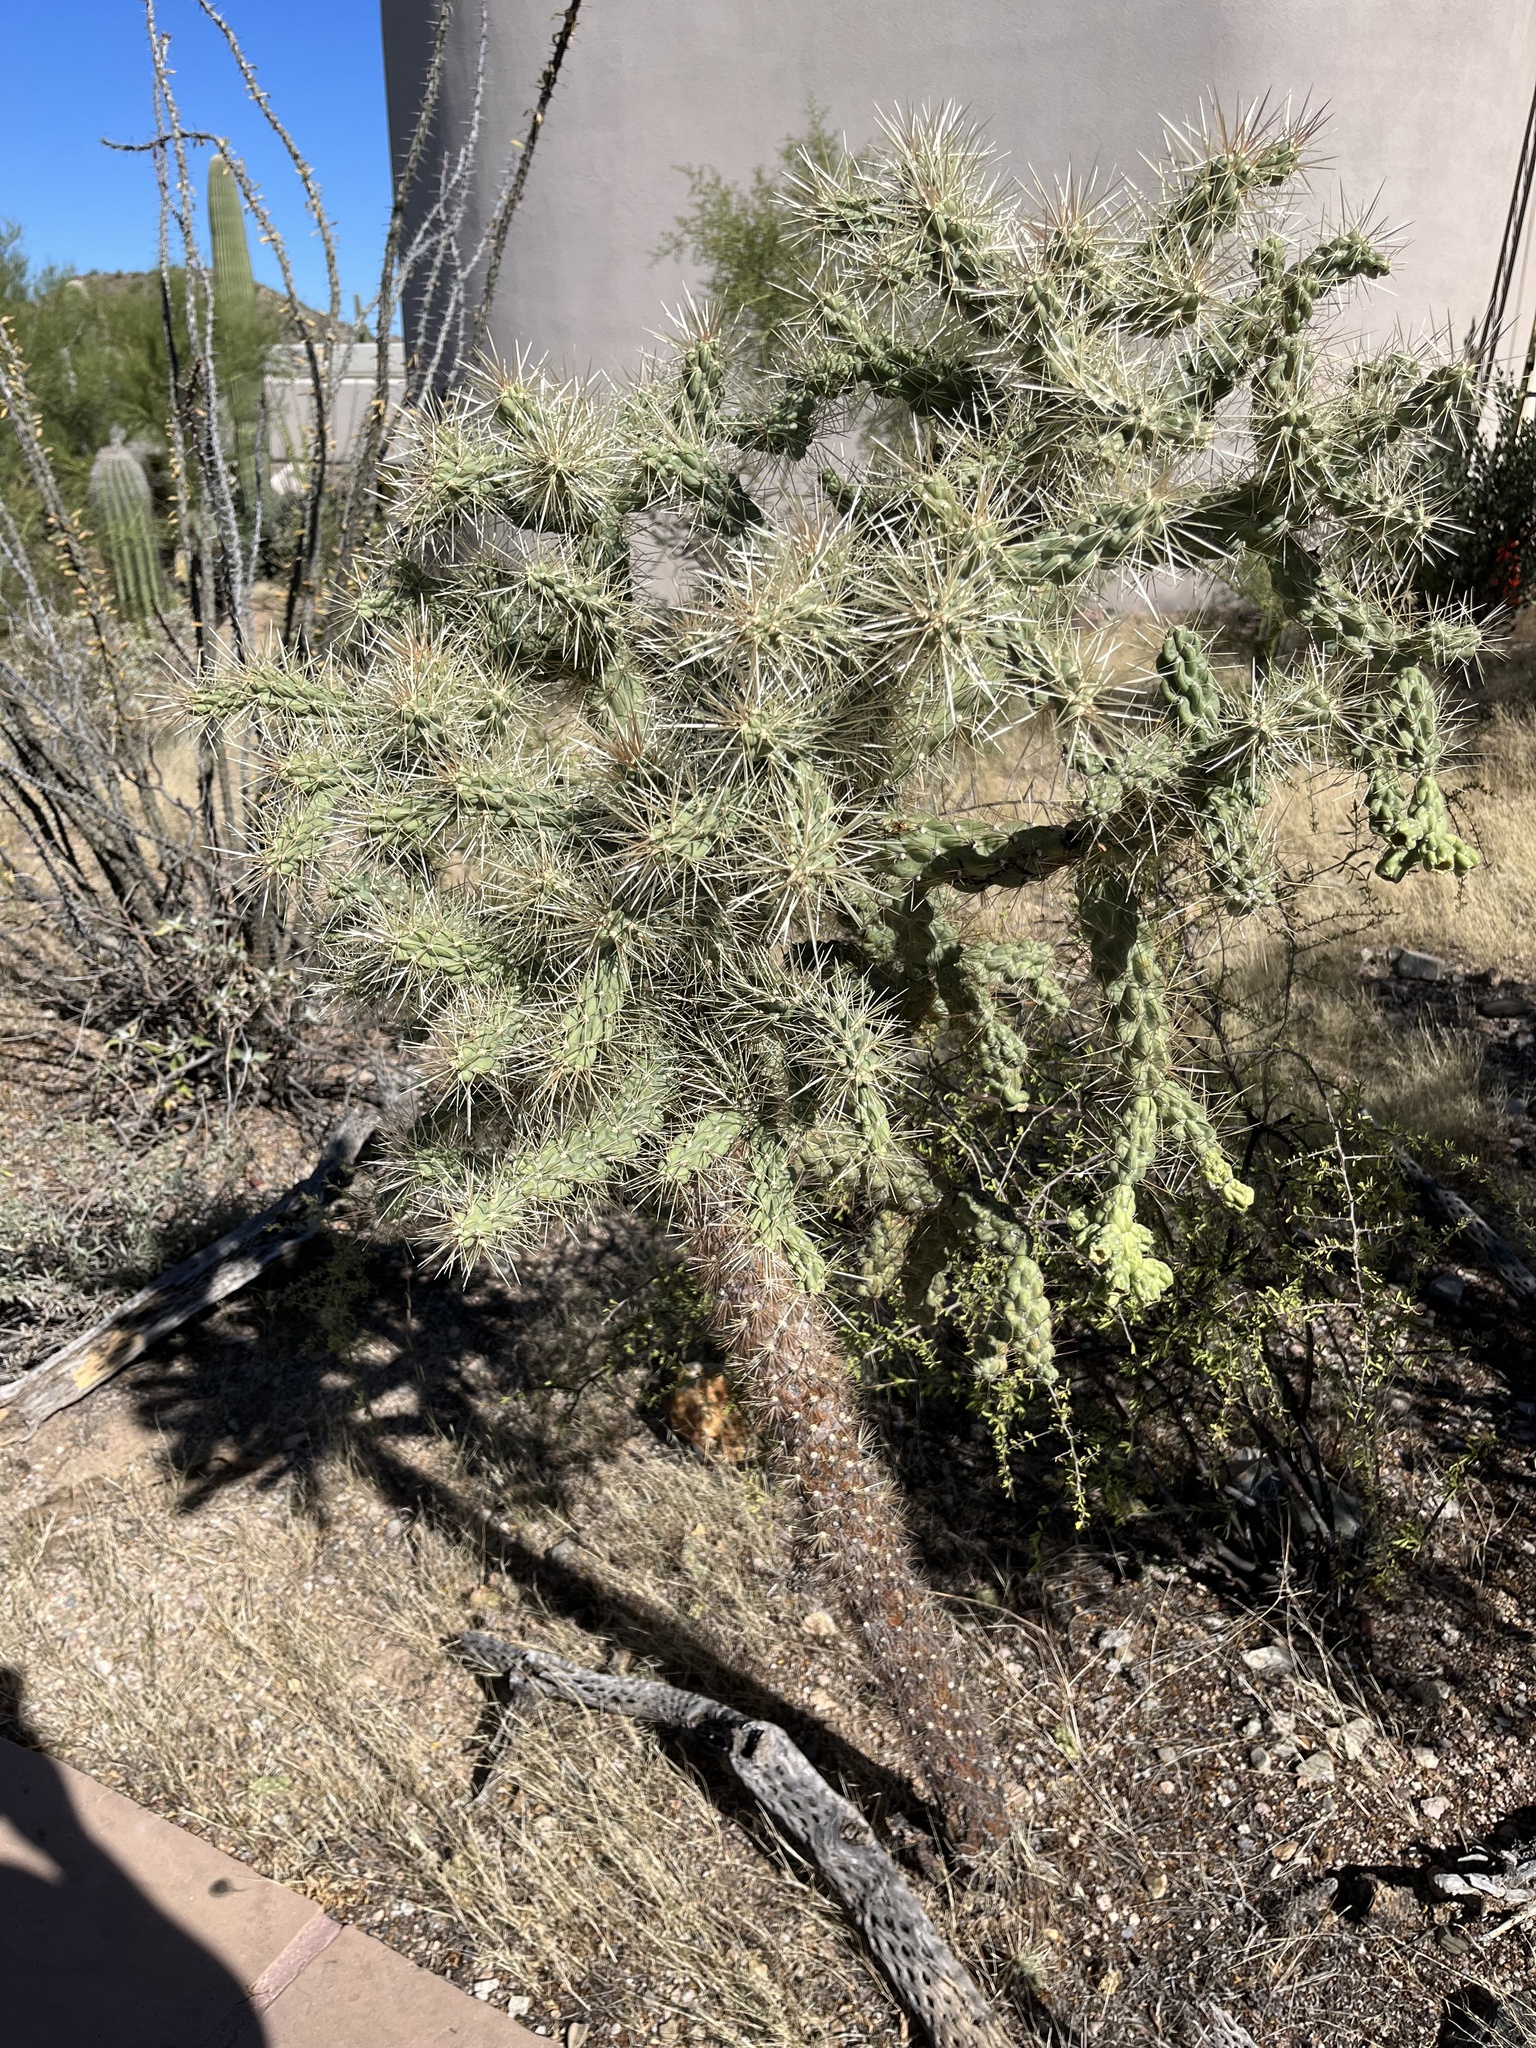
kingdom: Plantae
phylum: Tracheophyta
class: Magnoliopsida
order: Caryophyllales
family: Cactaceae
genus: Cylindropuntia
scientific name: Cylindropuntia fulgida
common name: Jumping cholla
